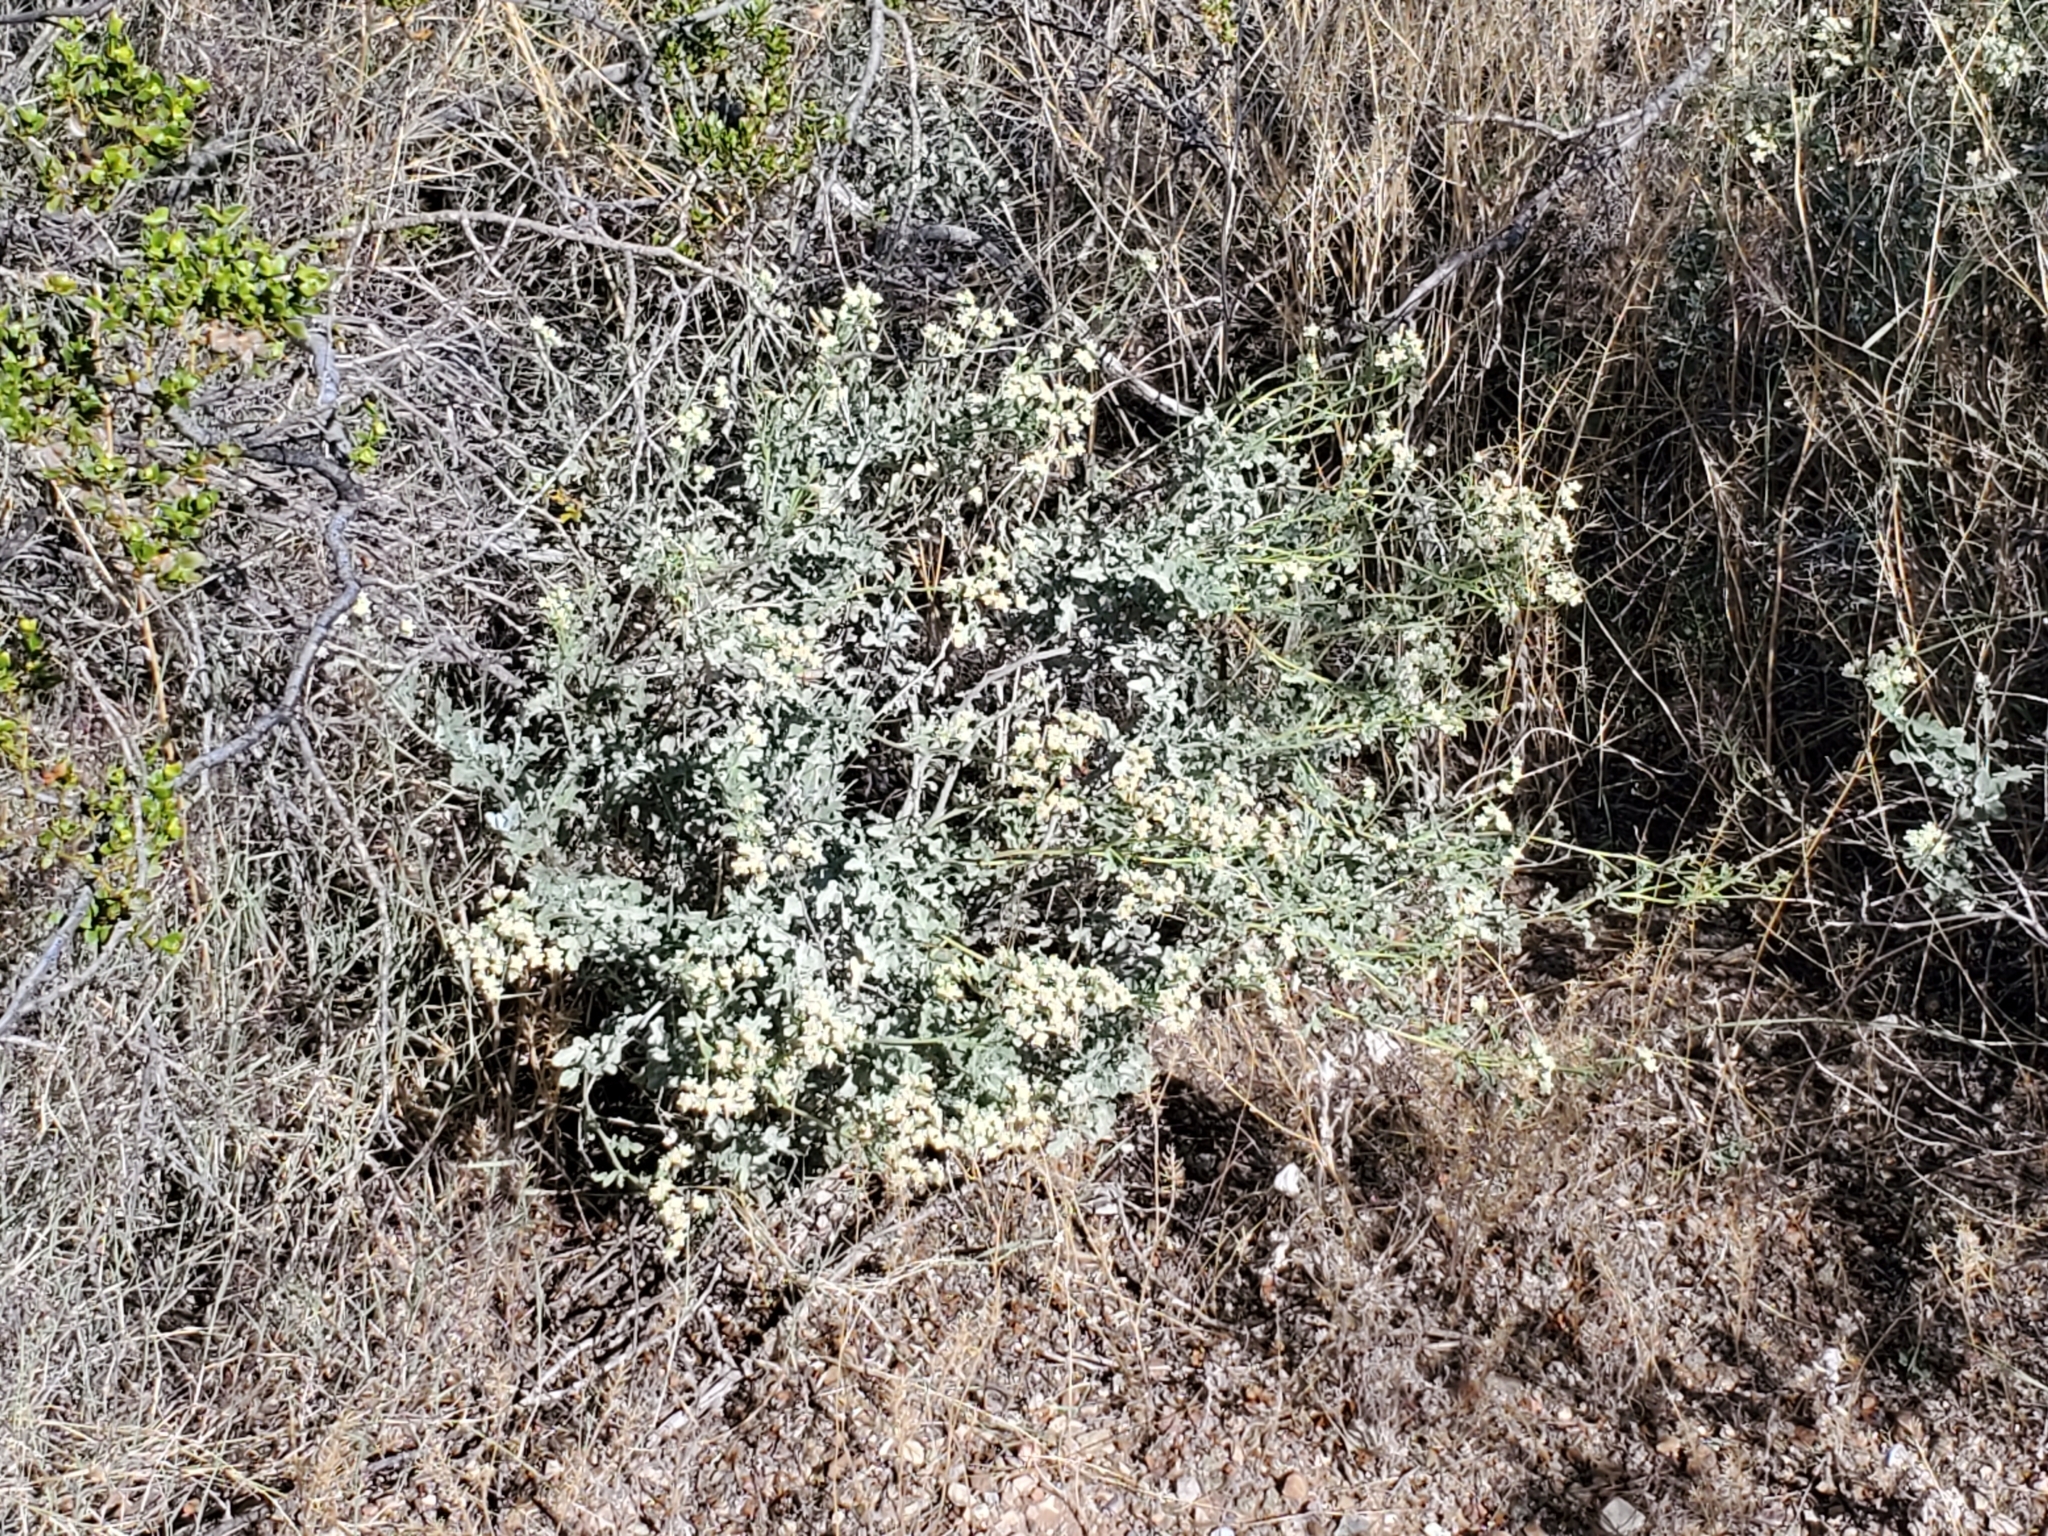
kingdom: Plantae
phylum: Tracheophyta
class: Magnoliopsida
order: Asterales
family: Asteraceae
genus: Parthenium
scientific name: Parthenium incanum
